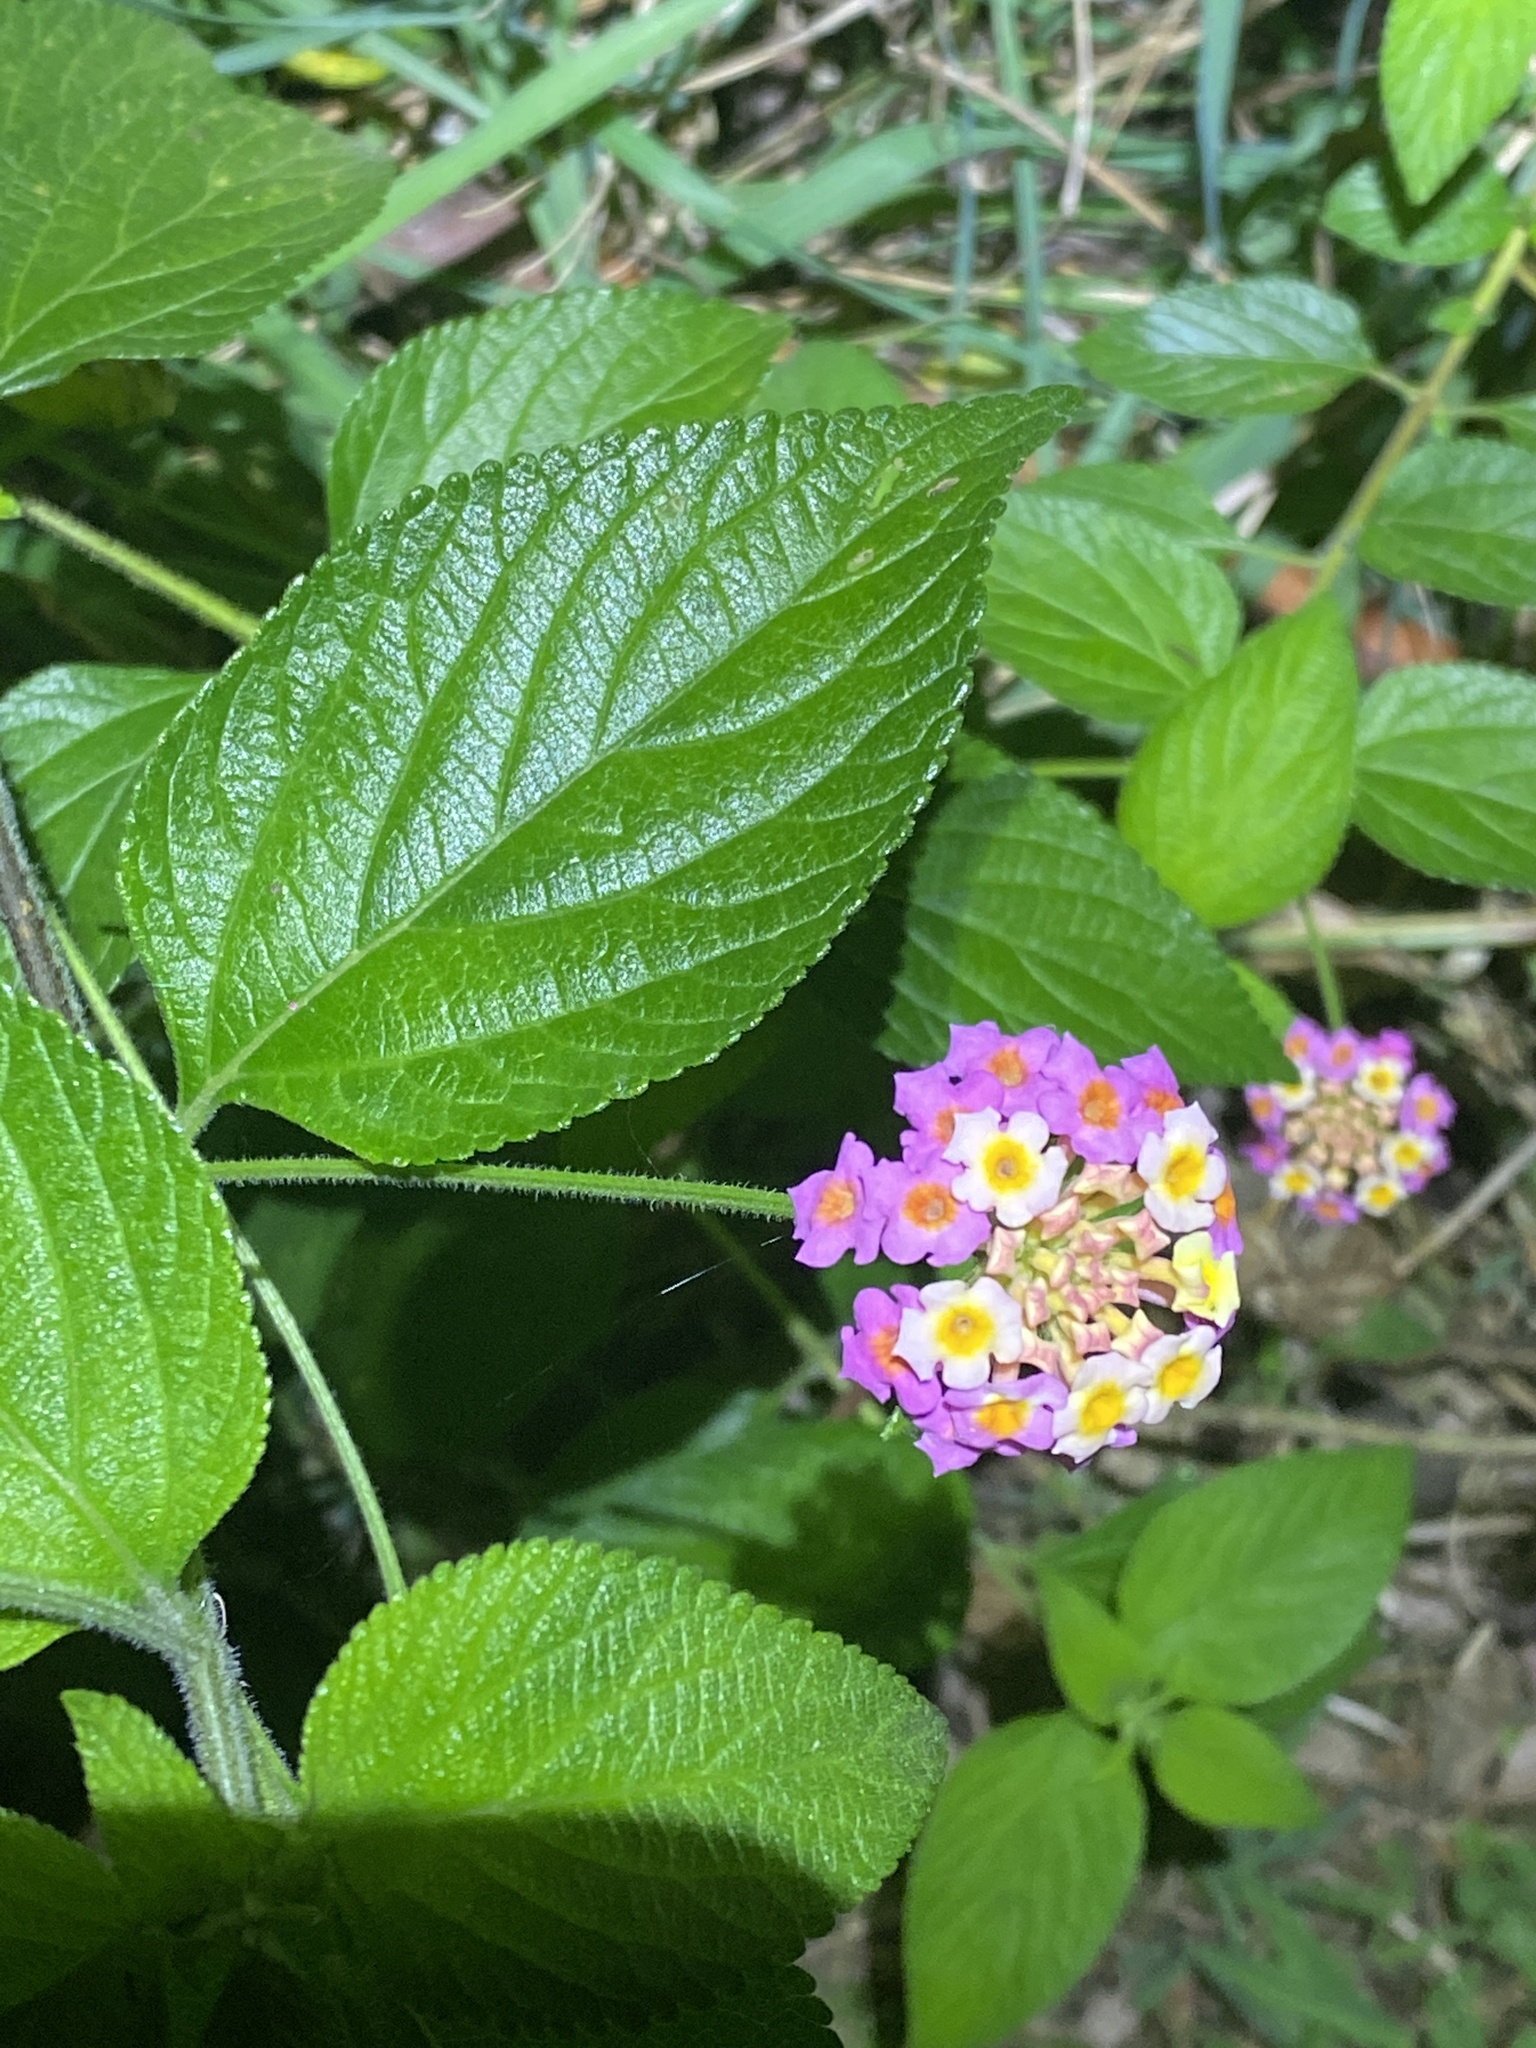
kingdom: Plantae
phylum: Tracheophyta
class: Magnoliopsida
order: Lamiales
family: Verbenaceae
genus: Lantana
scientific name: Lantana camara
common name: Lantana
